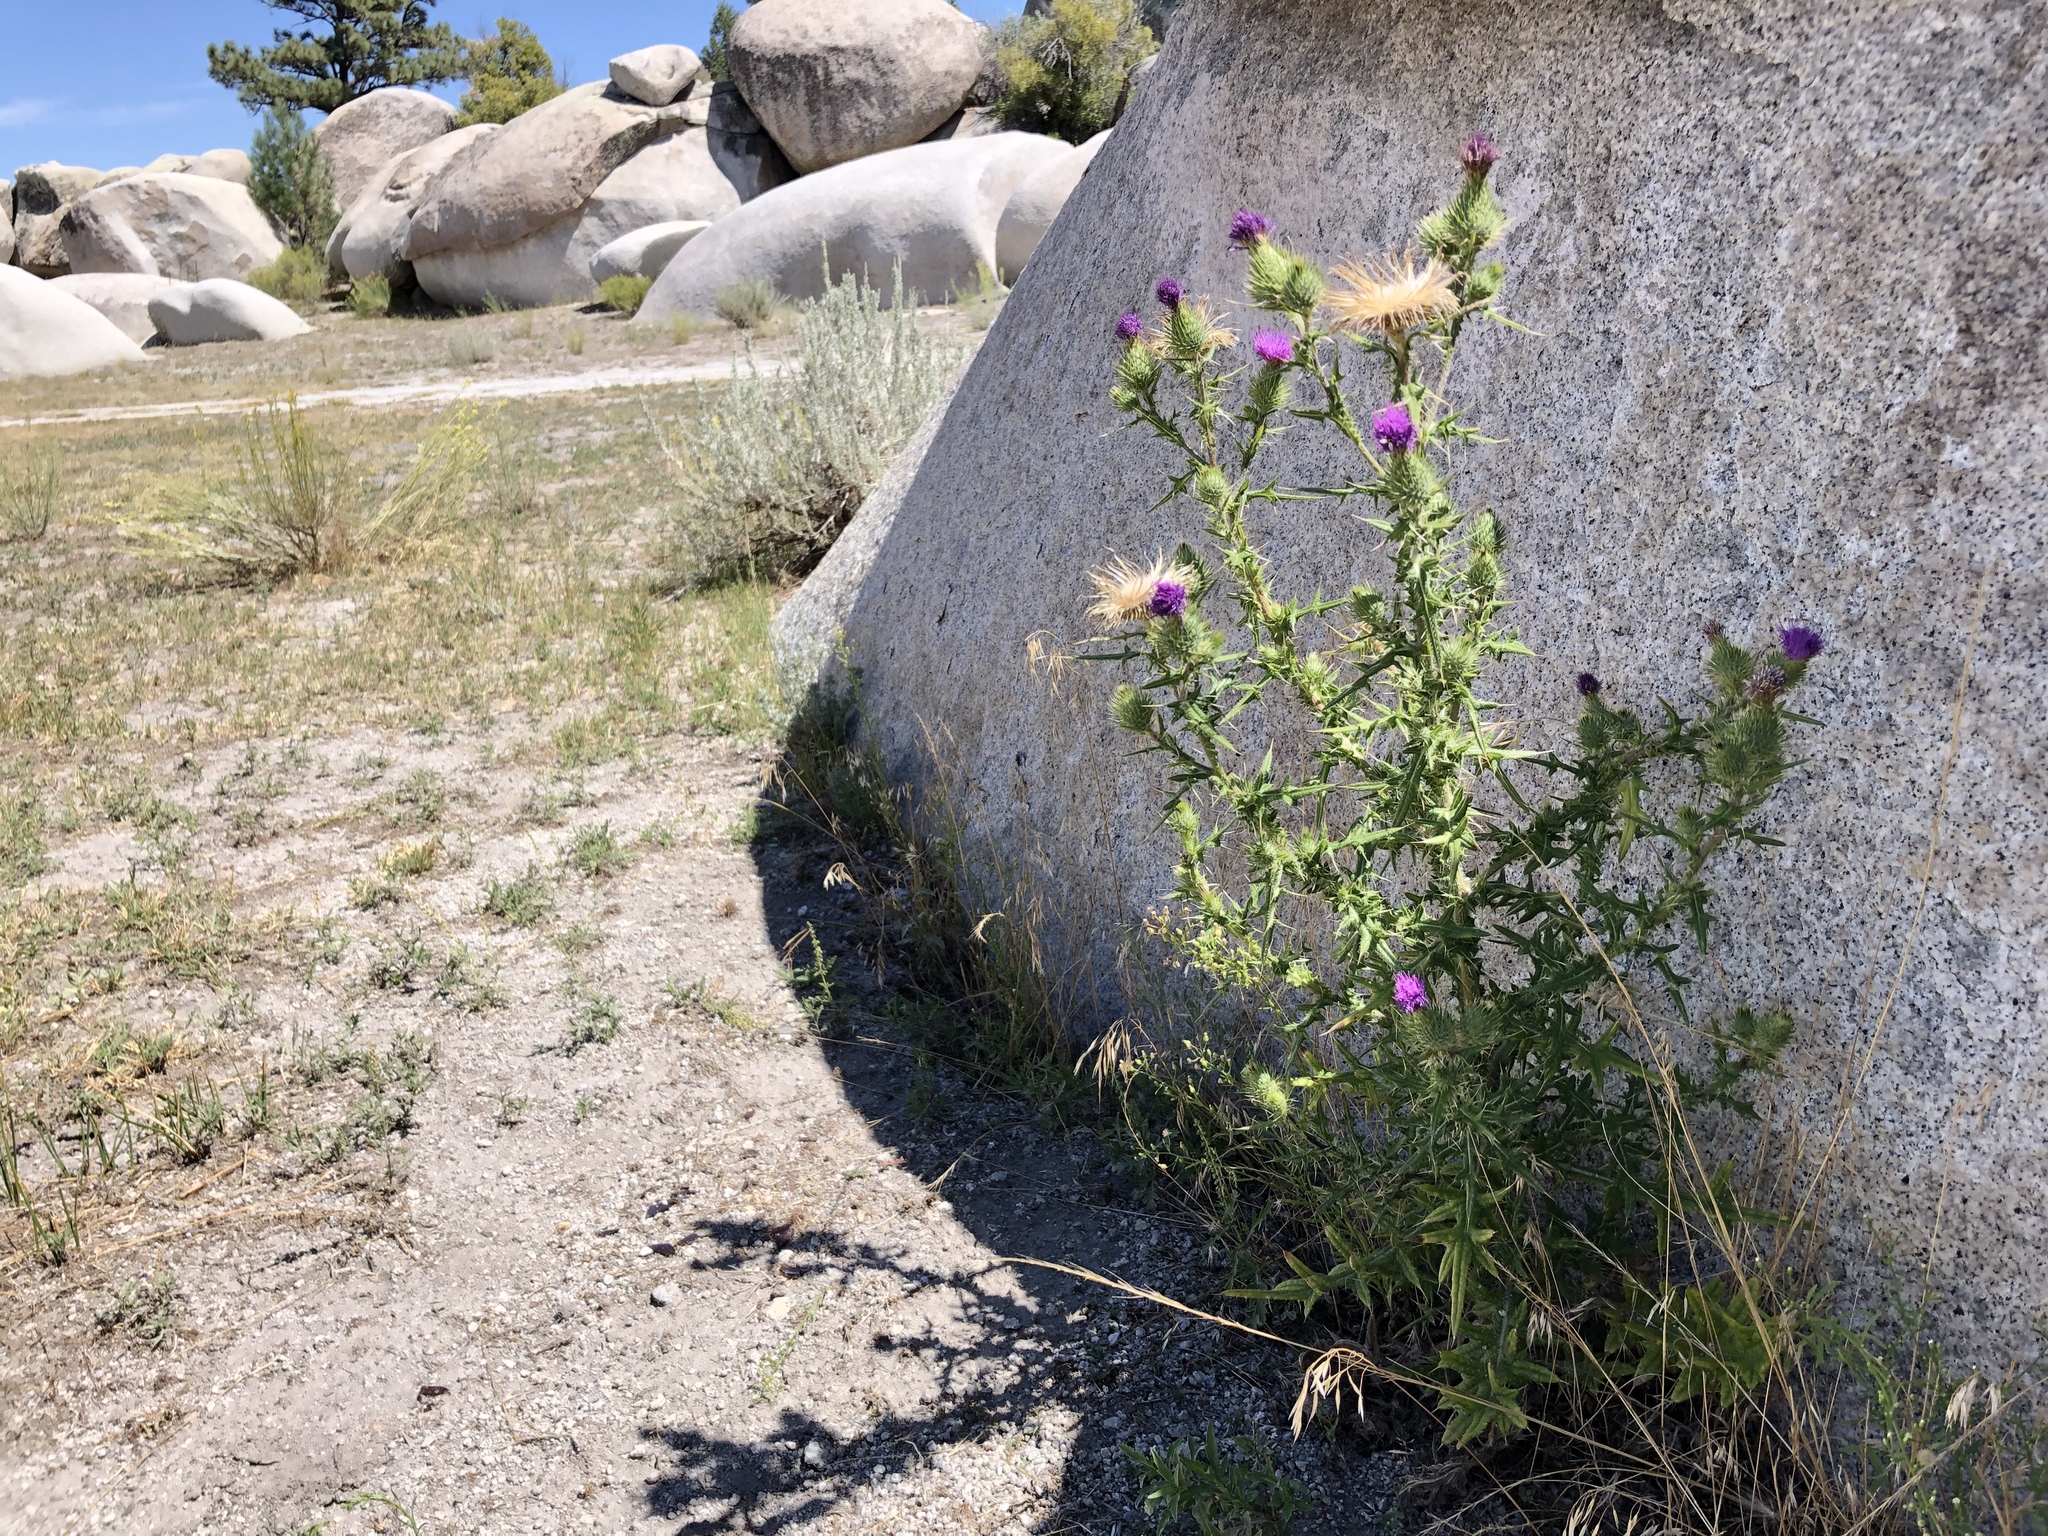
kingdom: Plantae
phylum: Tracheophyta
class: Magnoliopsida
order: Asterales
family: Asteraceae
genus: Cirsium
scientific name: Cirsium vulgare
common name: Bull thistle
